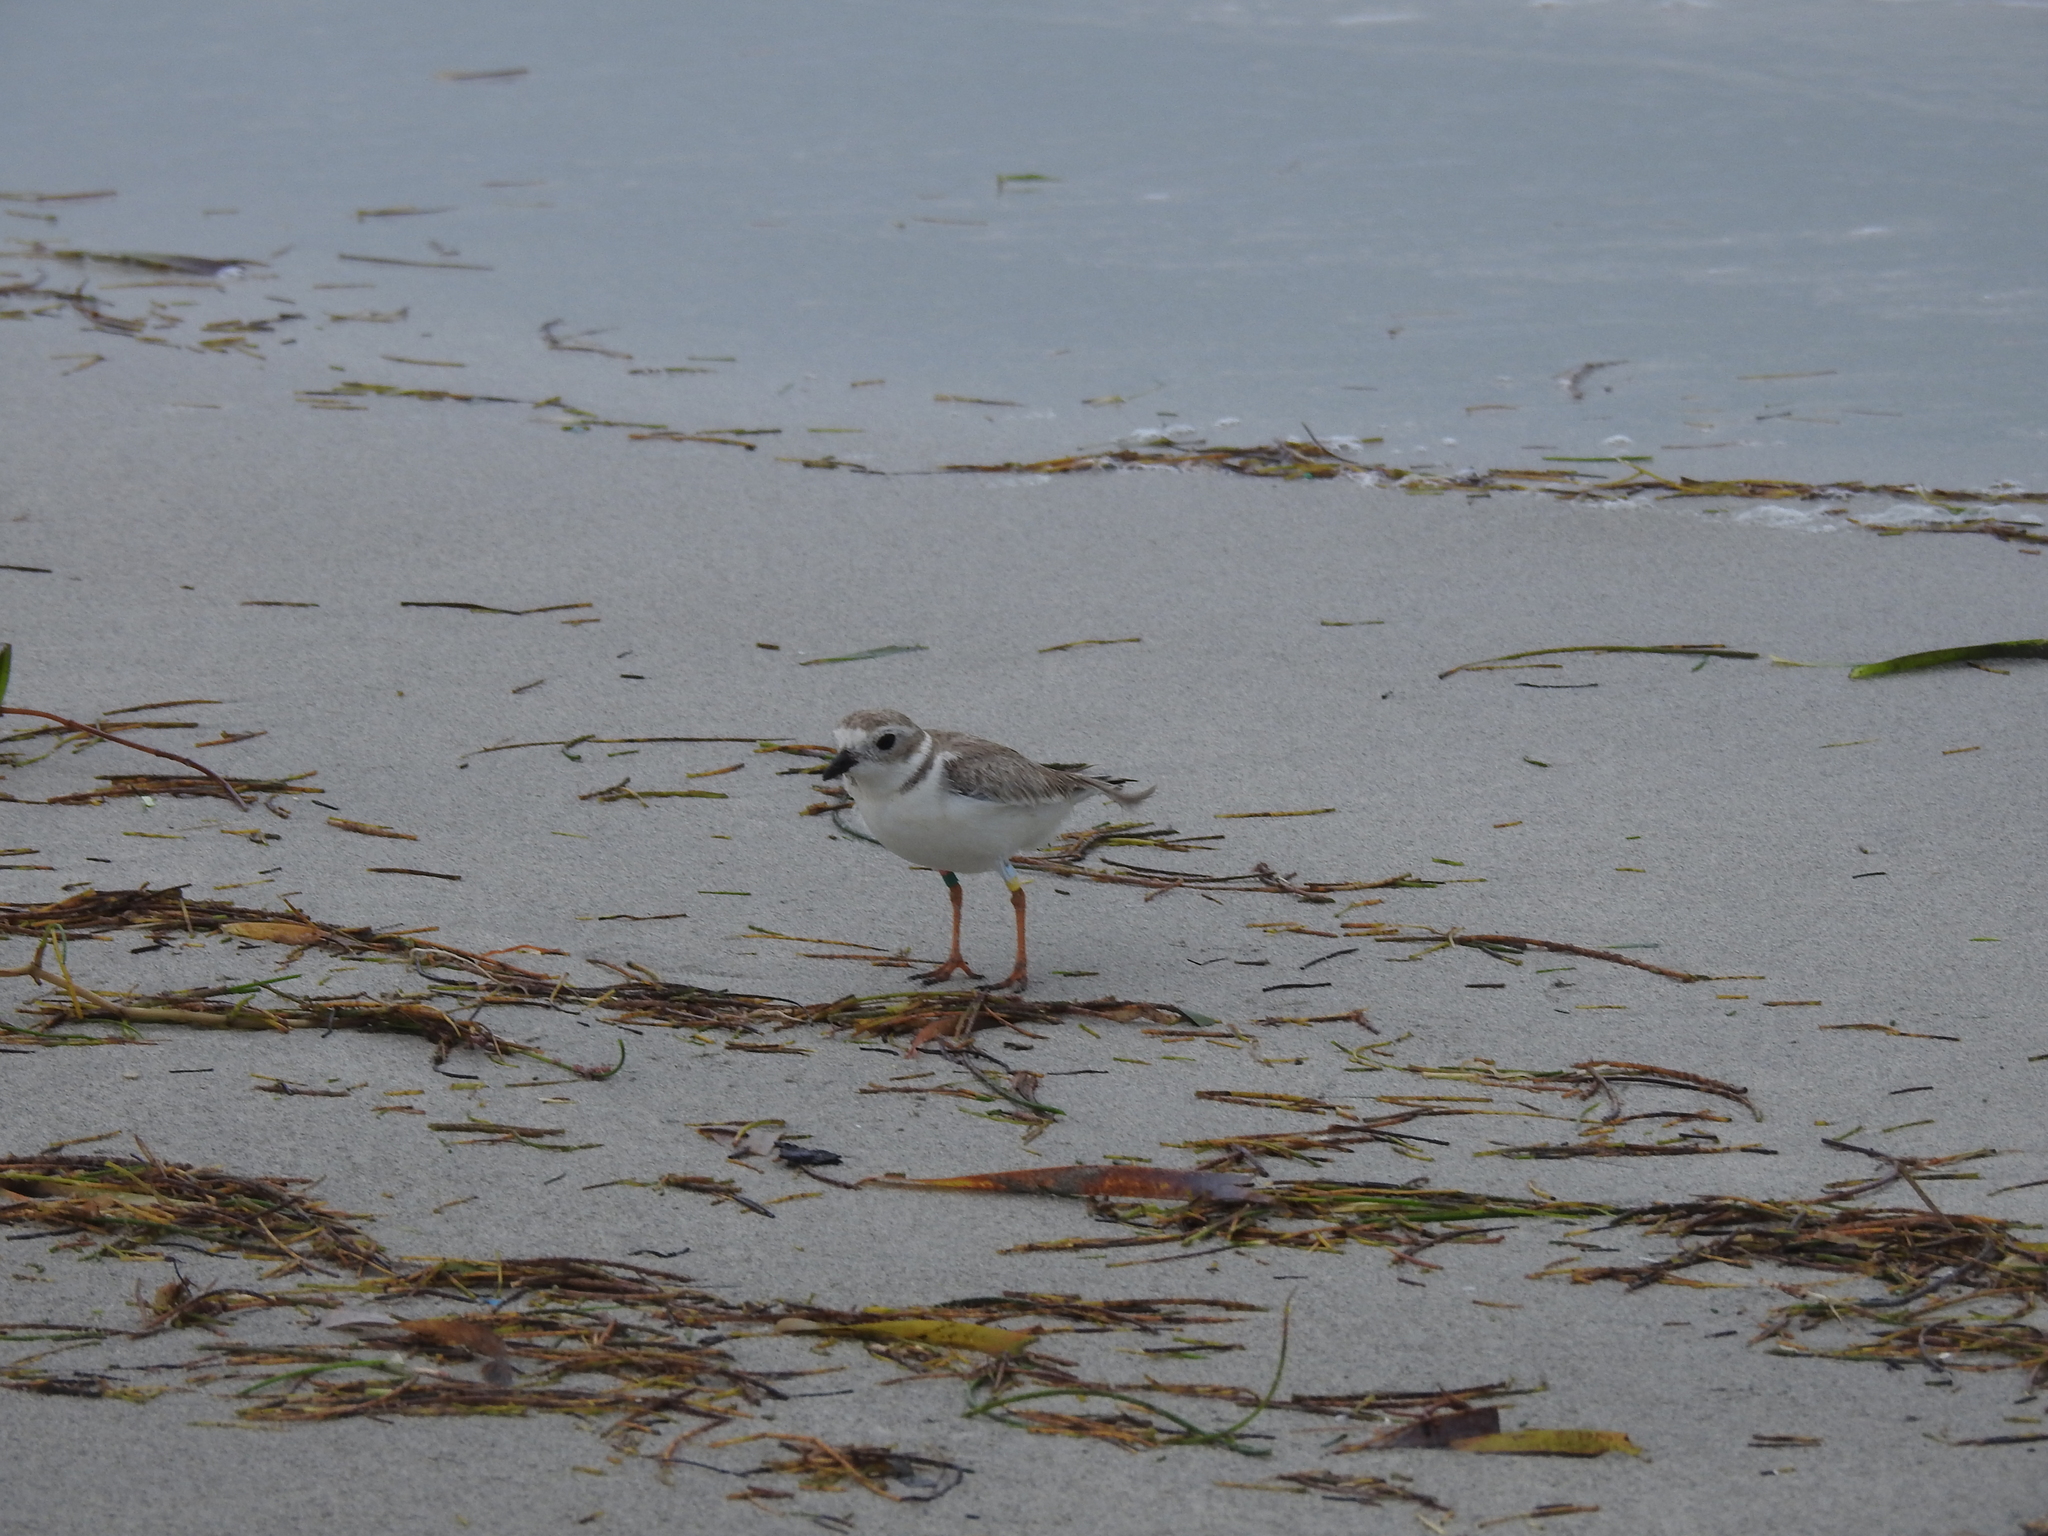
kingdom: Animalia
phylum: Chordata
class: Aves
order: Charadriiformes
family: Charadriidae
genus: Charadrius
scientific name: Charadrius melodus
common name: Piping plover
